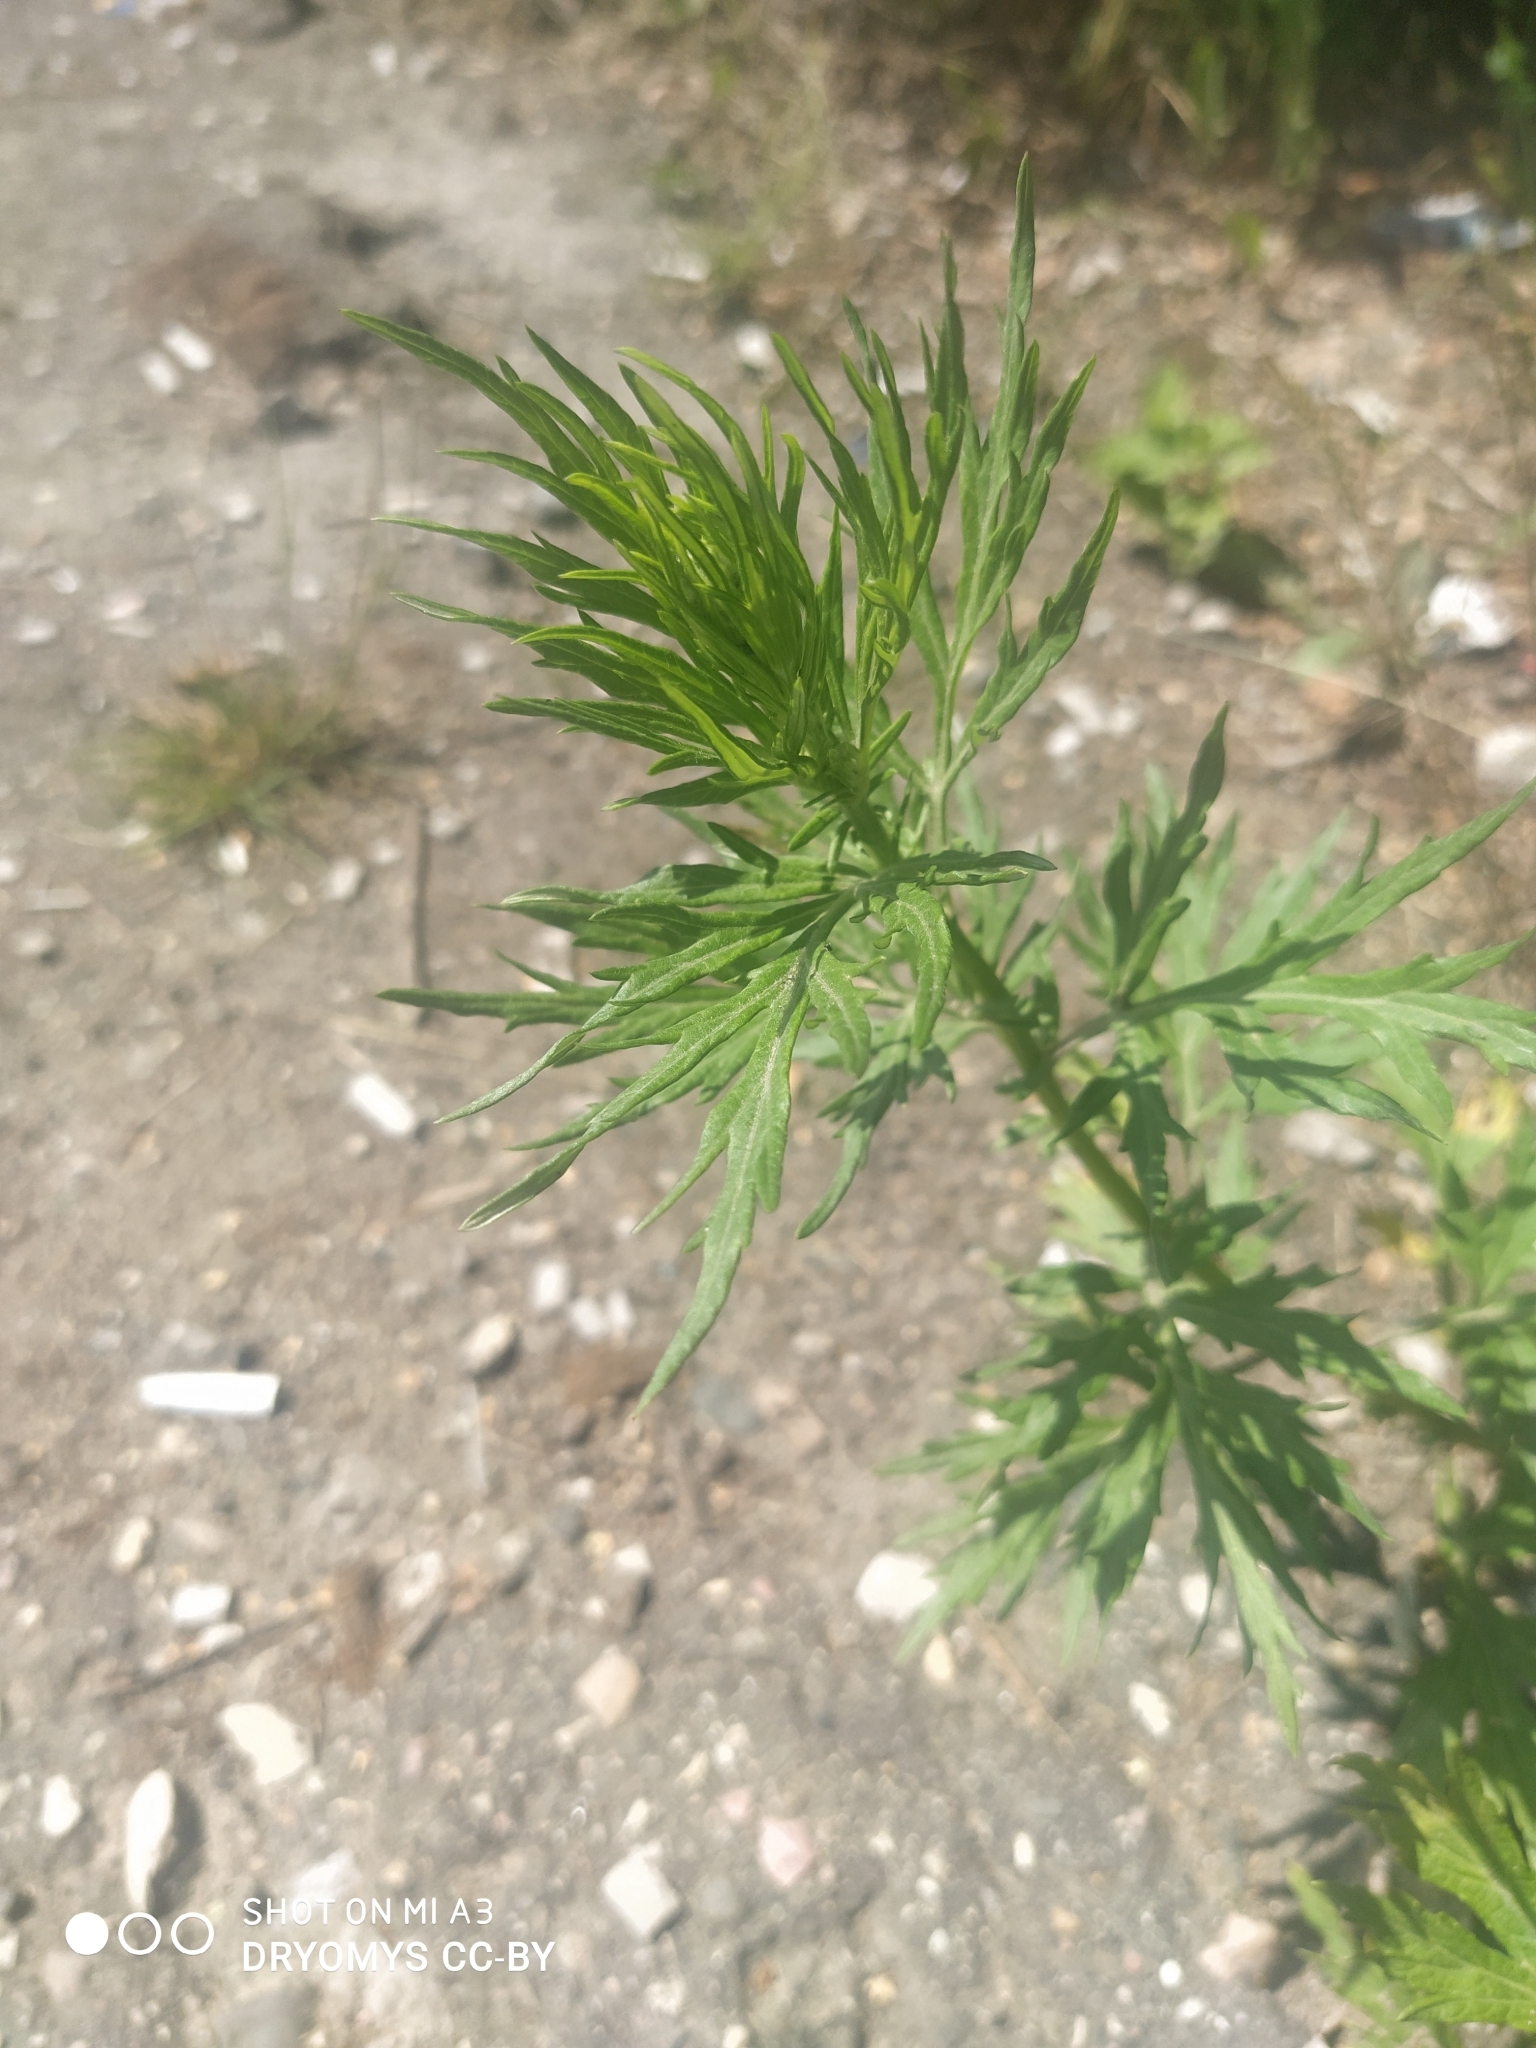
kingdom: Plantae
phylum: Tracheophyta
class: Magnoliopsida
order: Asterales
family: Asteraceae
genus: Artemisia
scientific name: Artemisia vulgaris
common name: Mugwort
